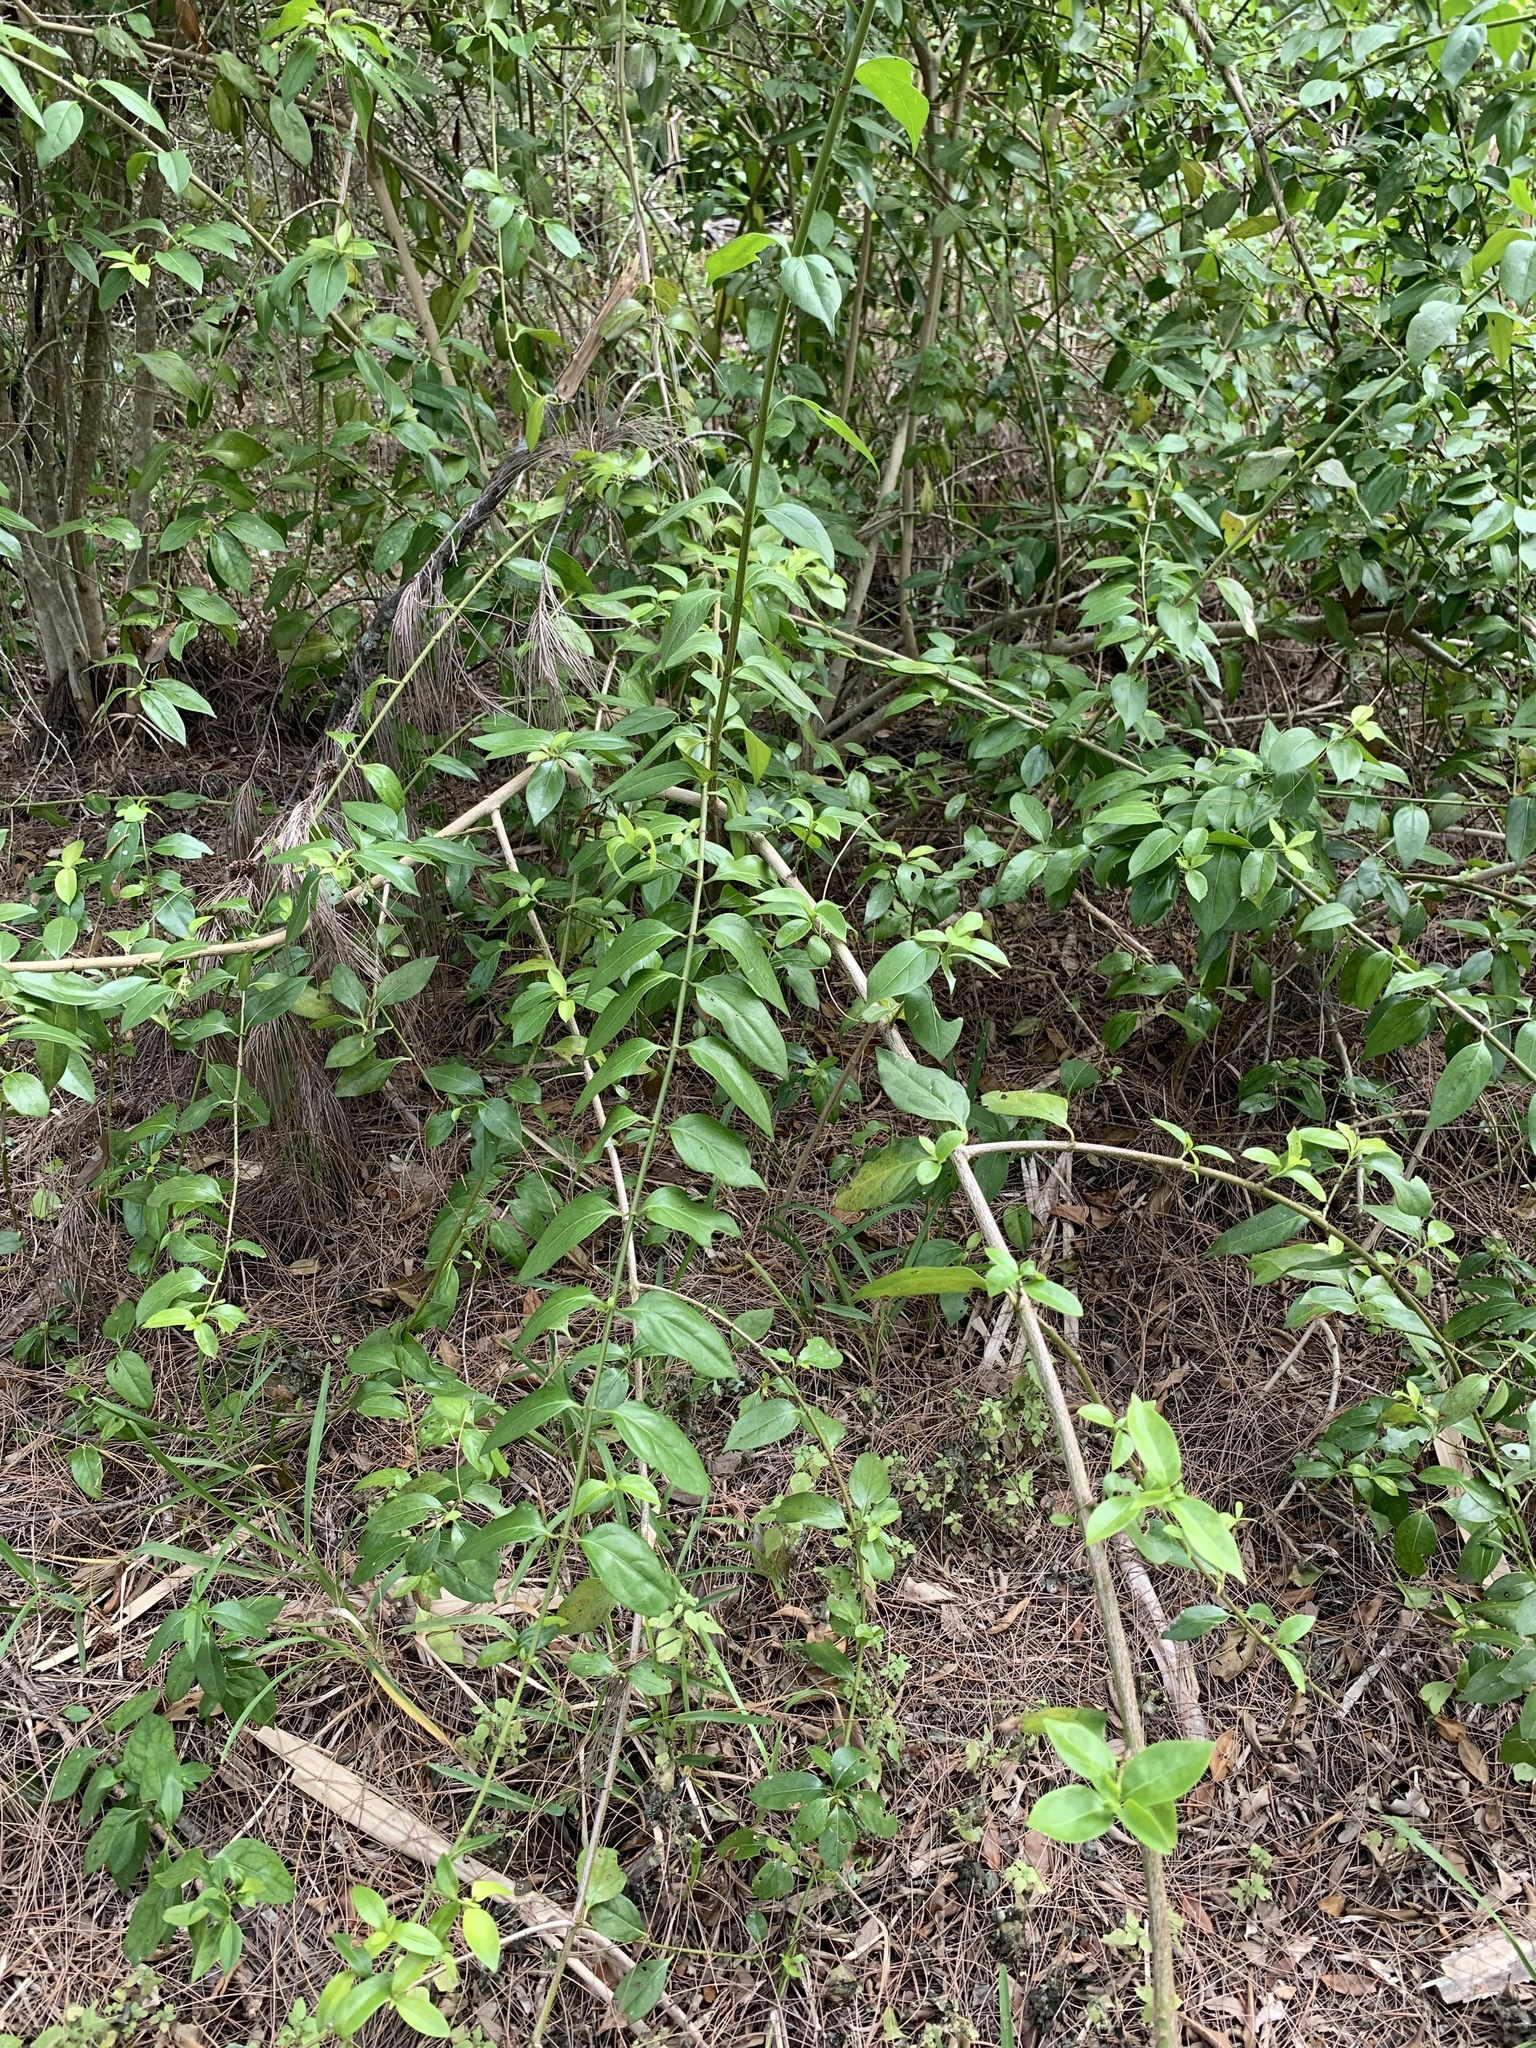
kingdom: Plantae
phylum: Tracheophyta
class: Magnoliopsida
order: Gentianales
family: Rubiaceae
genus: Chiococca
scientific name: Chiococca alba
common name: Snowberry
